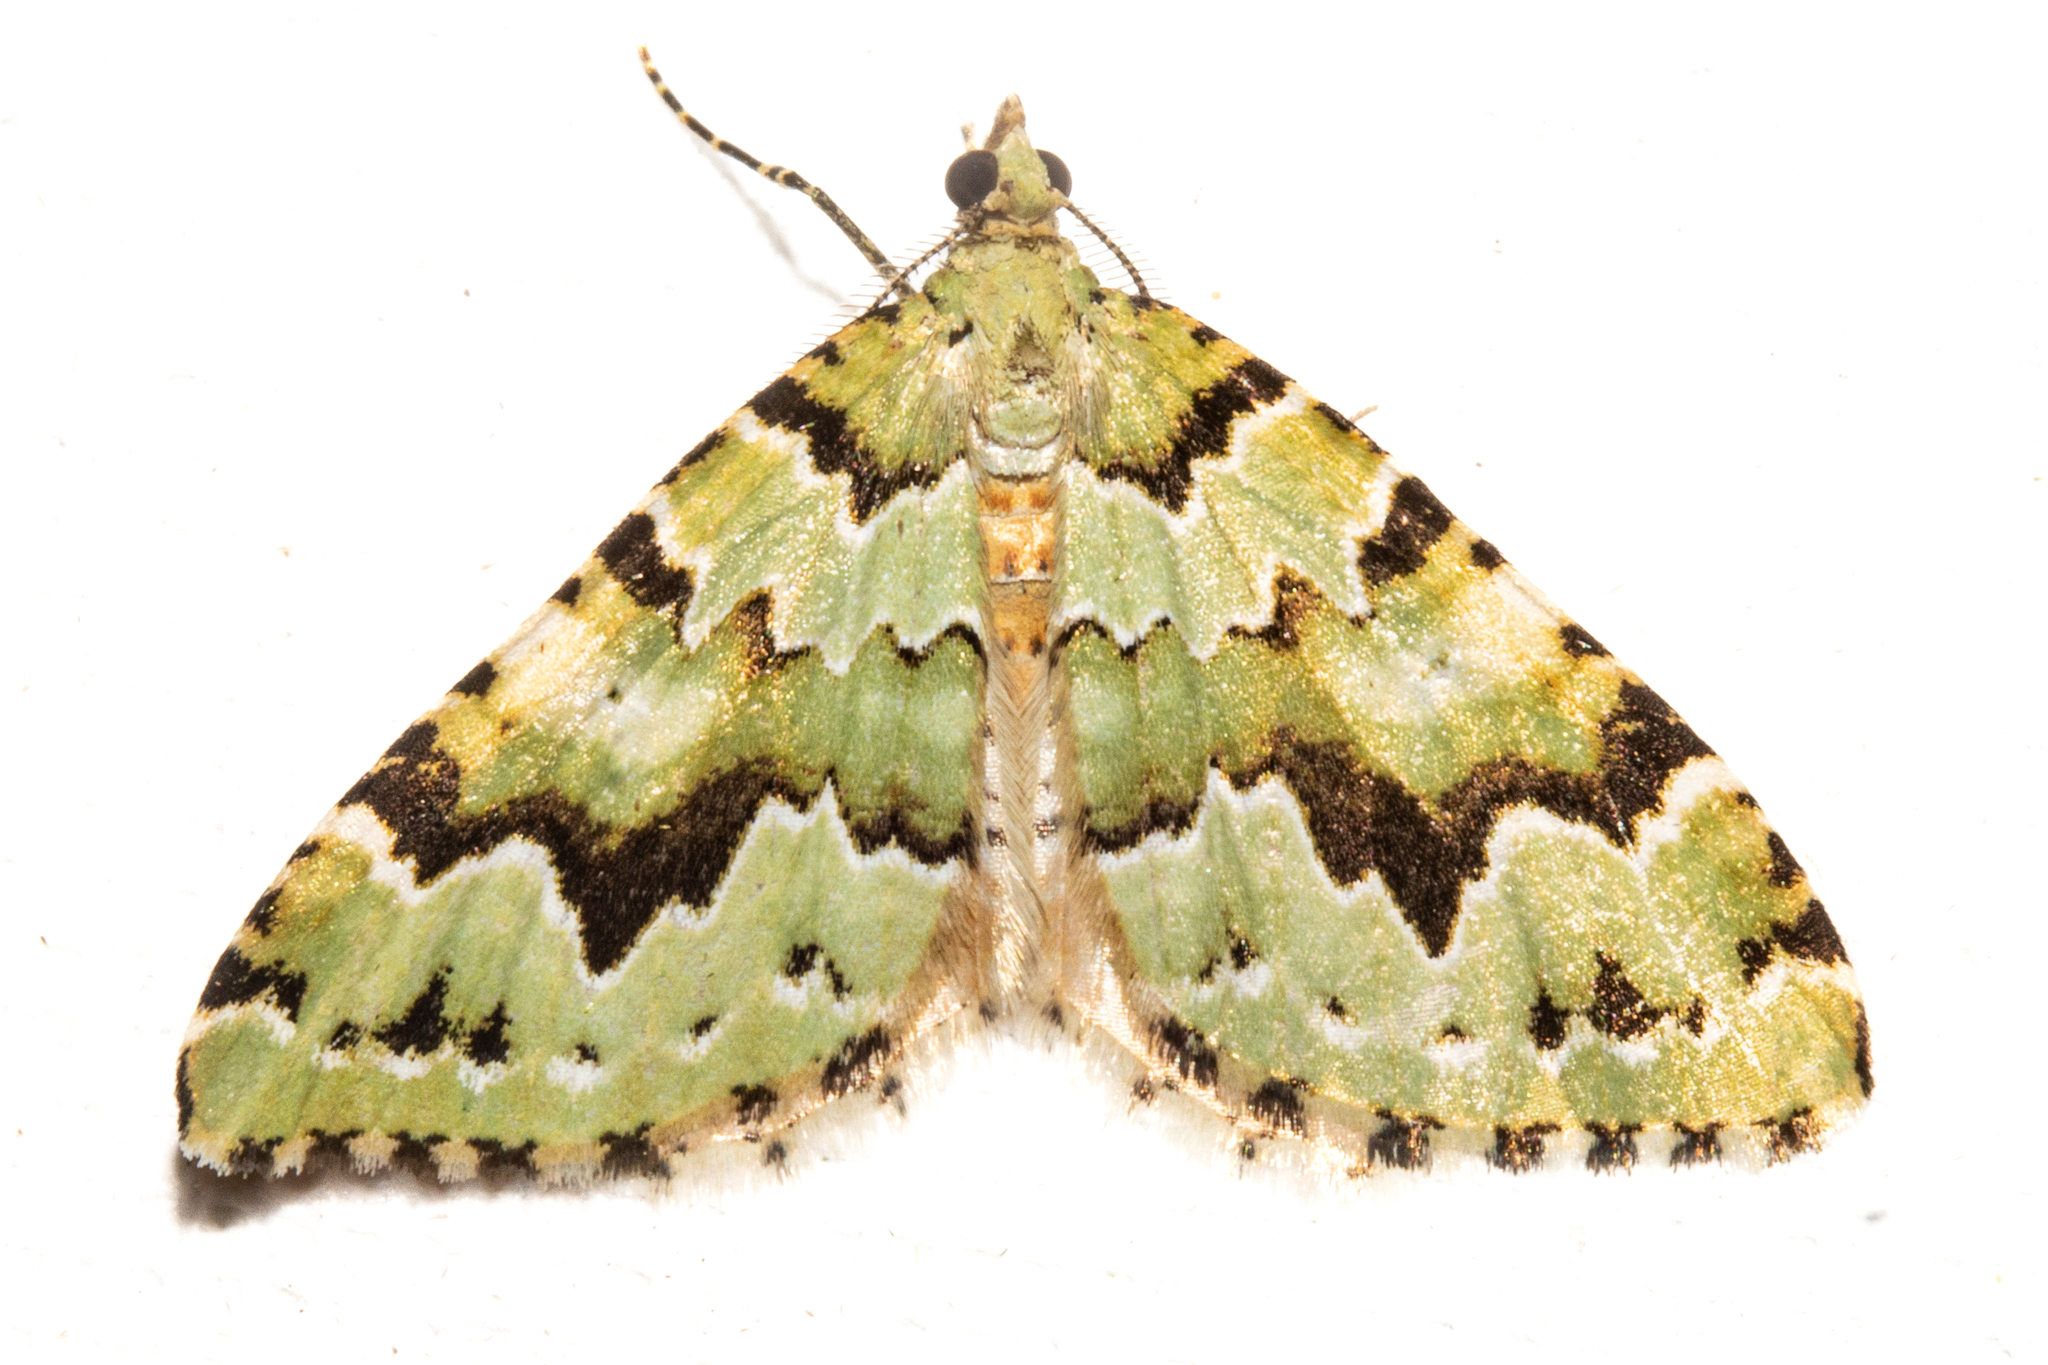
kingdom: Animalia
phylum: Arthropoda
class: Insecta
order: Lepidoptera
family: Geometridae
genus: Asaphodes
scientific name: Asaphodes adonis
